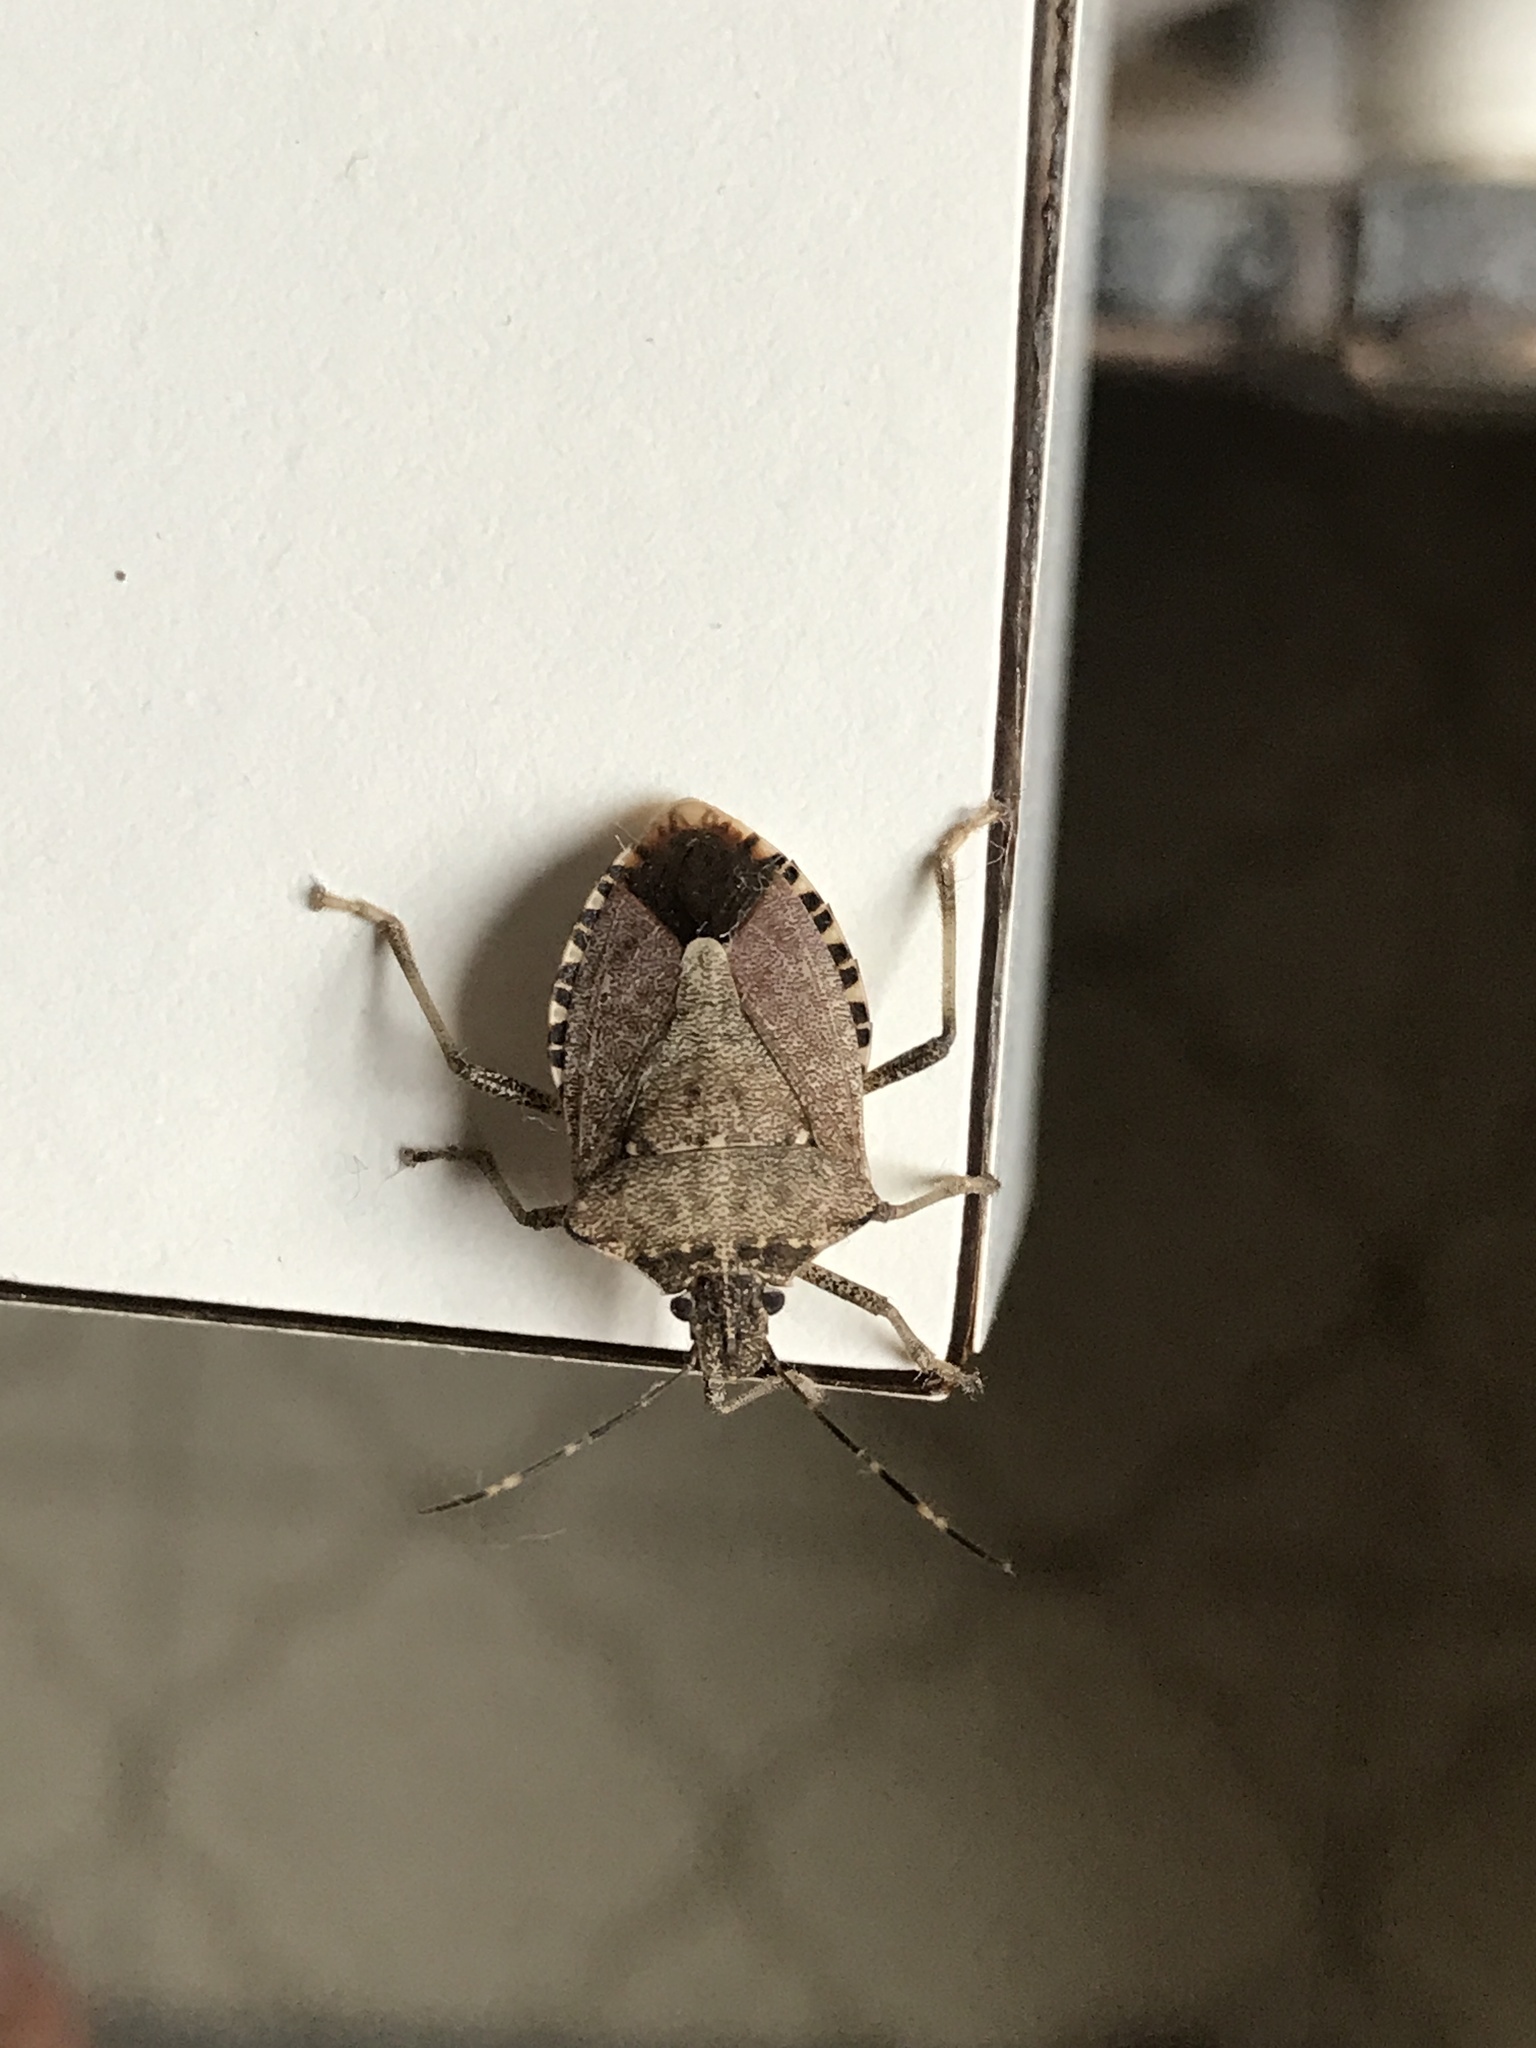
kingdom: Animalia
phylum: Arthropoda
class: Insecta
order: Hemiptera
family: Pentatomidae
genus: Halyomorpha
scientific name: Halyomorpha halys
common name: Brown marmorated stink bug
